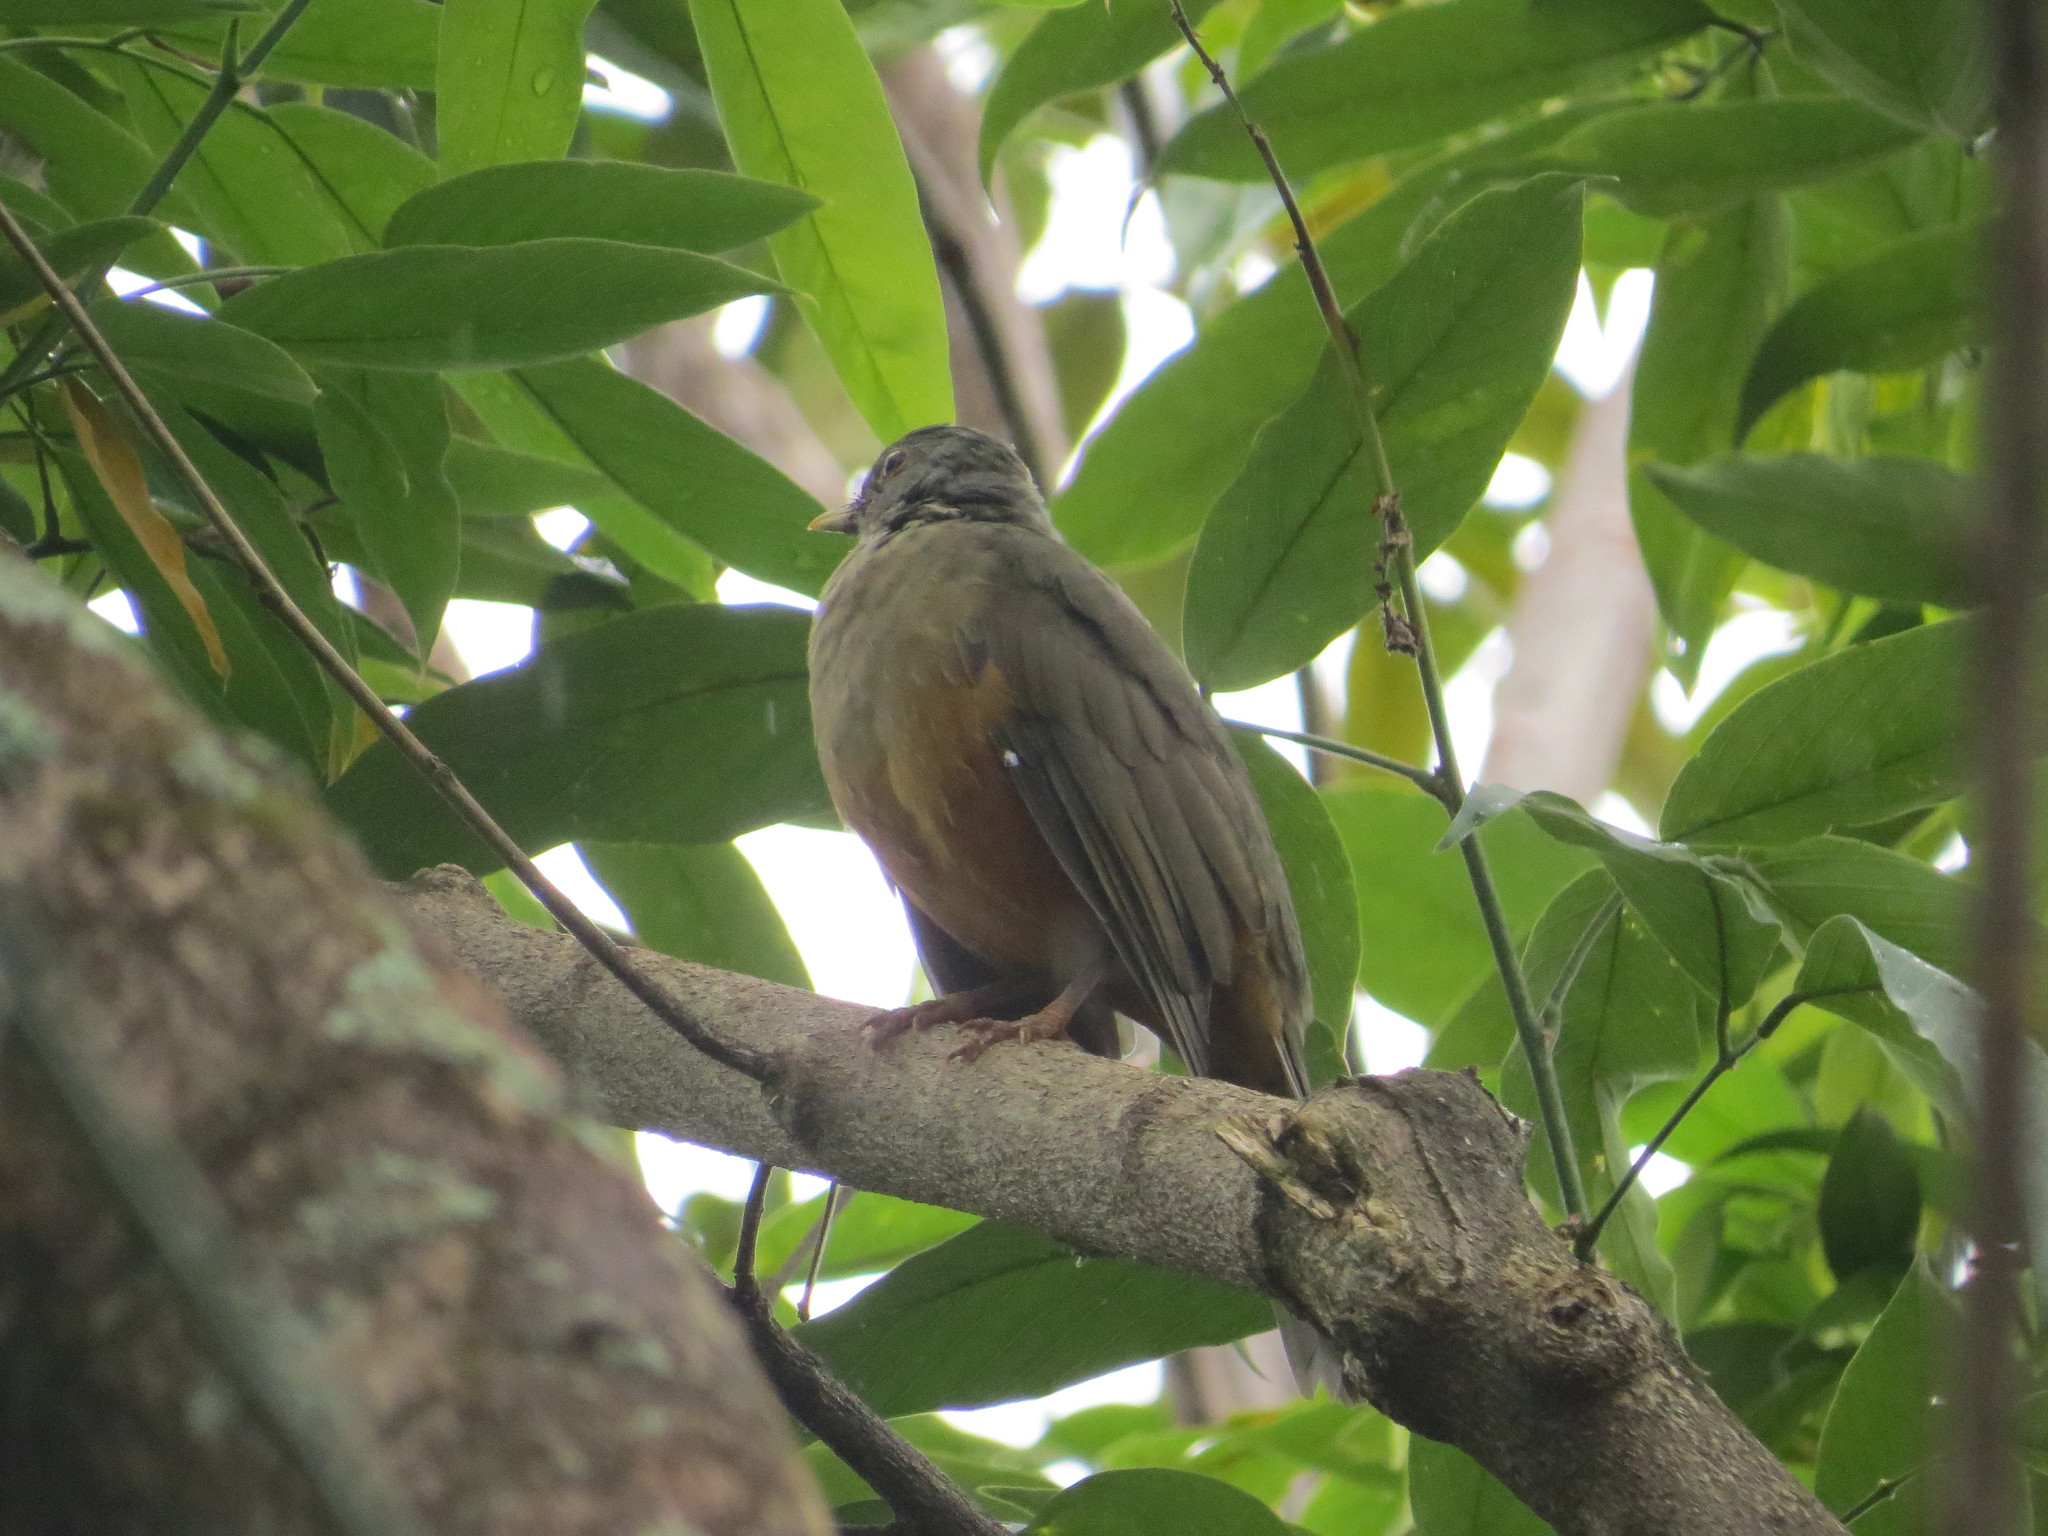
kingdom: Animalia
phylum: Chordata
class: Aves
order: Passeriformes
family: Turdidae
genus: Turdus
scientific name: Turdus rufiventris
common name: Rufous-bellied thrush
